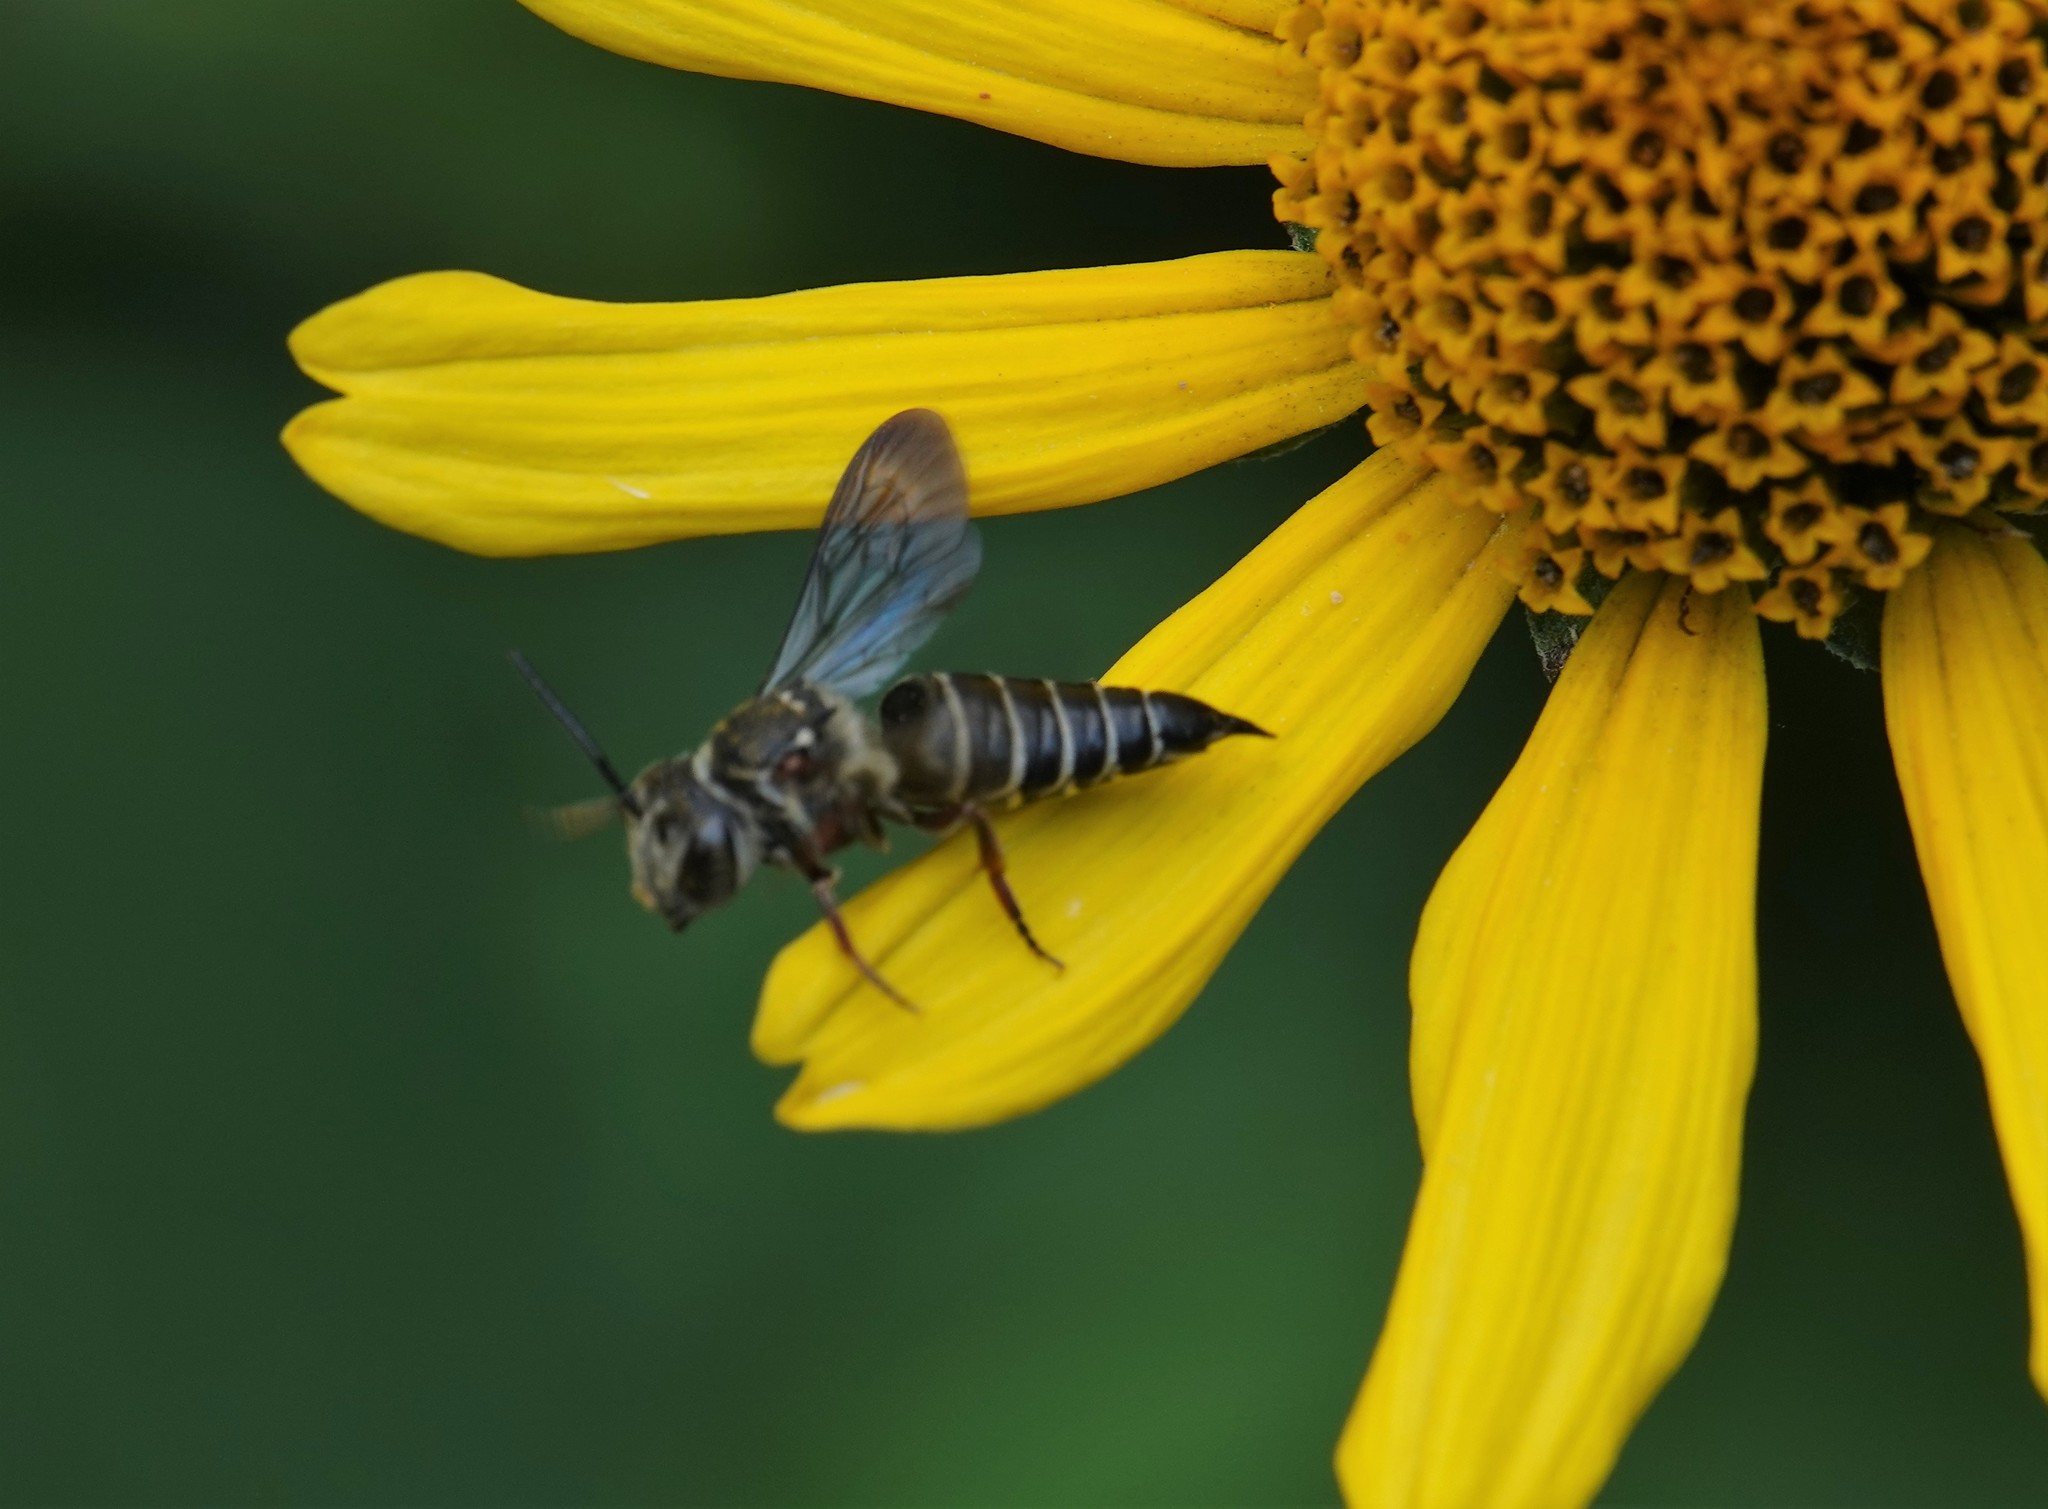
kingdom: Animalia
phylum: Arthropoda
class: Insecta
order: Hymenoptera
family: Megachilidae
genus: Coelioxys
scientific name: Coelioxys sayi
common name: Say's cuckoo leaf-cutter bee
